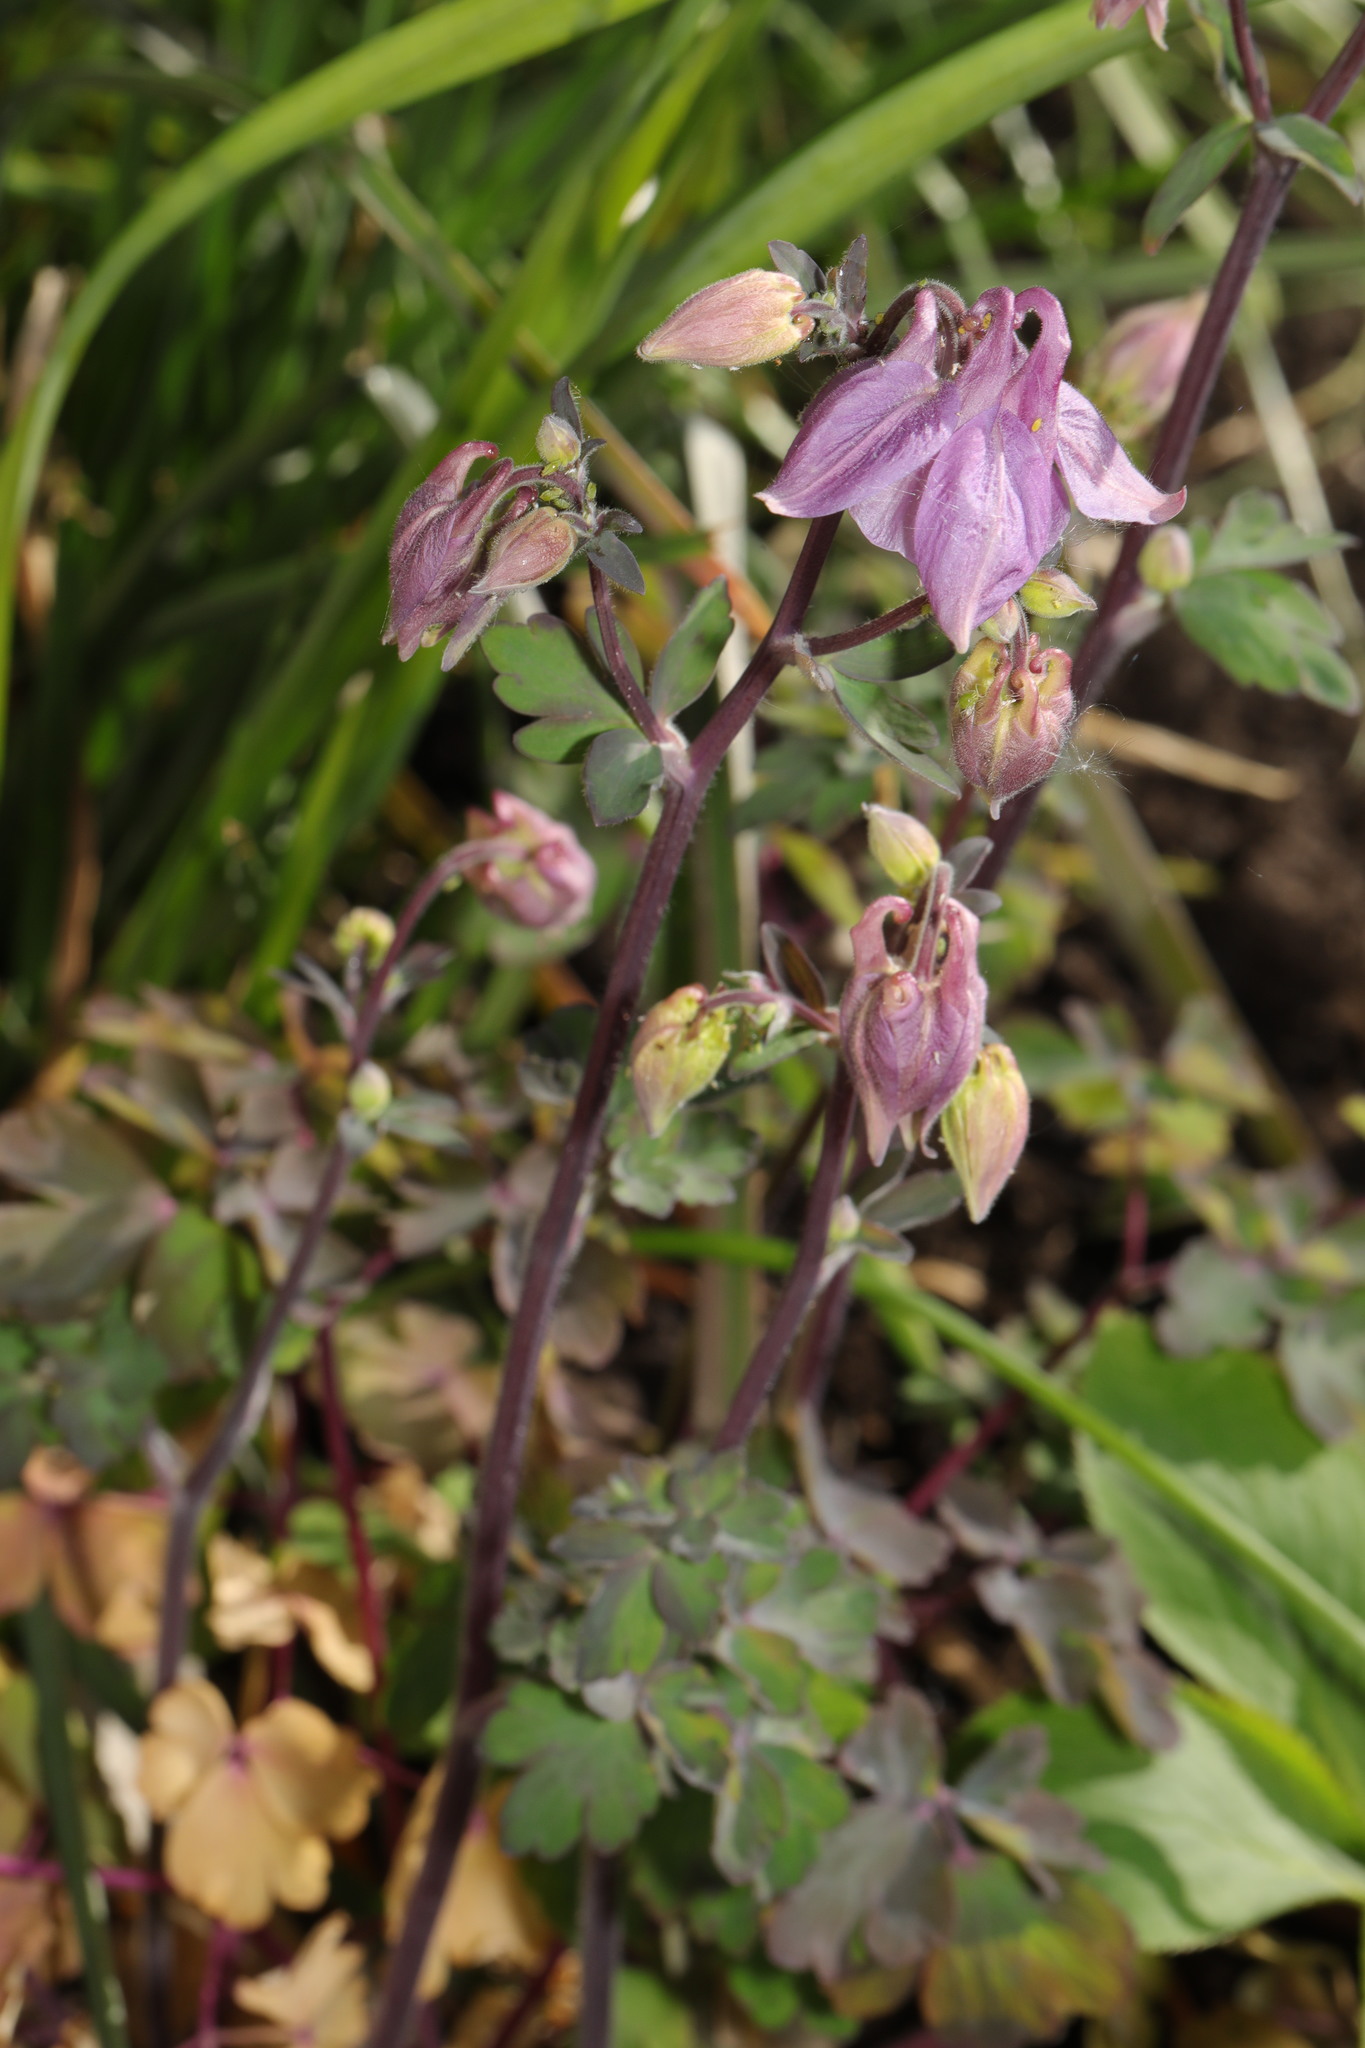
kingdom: Plantae
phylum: Tracheophyta
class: Magnoliopsida
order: Ranunculales
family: Ranunculaceae
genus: Aquilegia
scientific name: Aquilegia vulgaris
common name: Columbine
